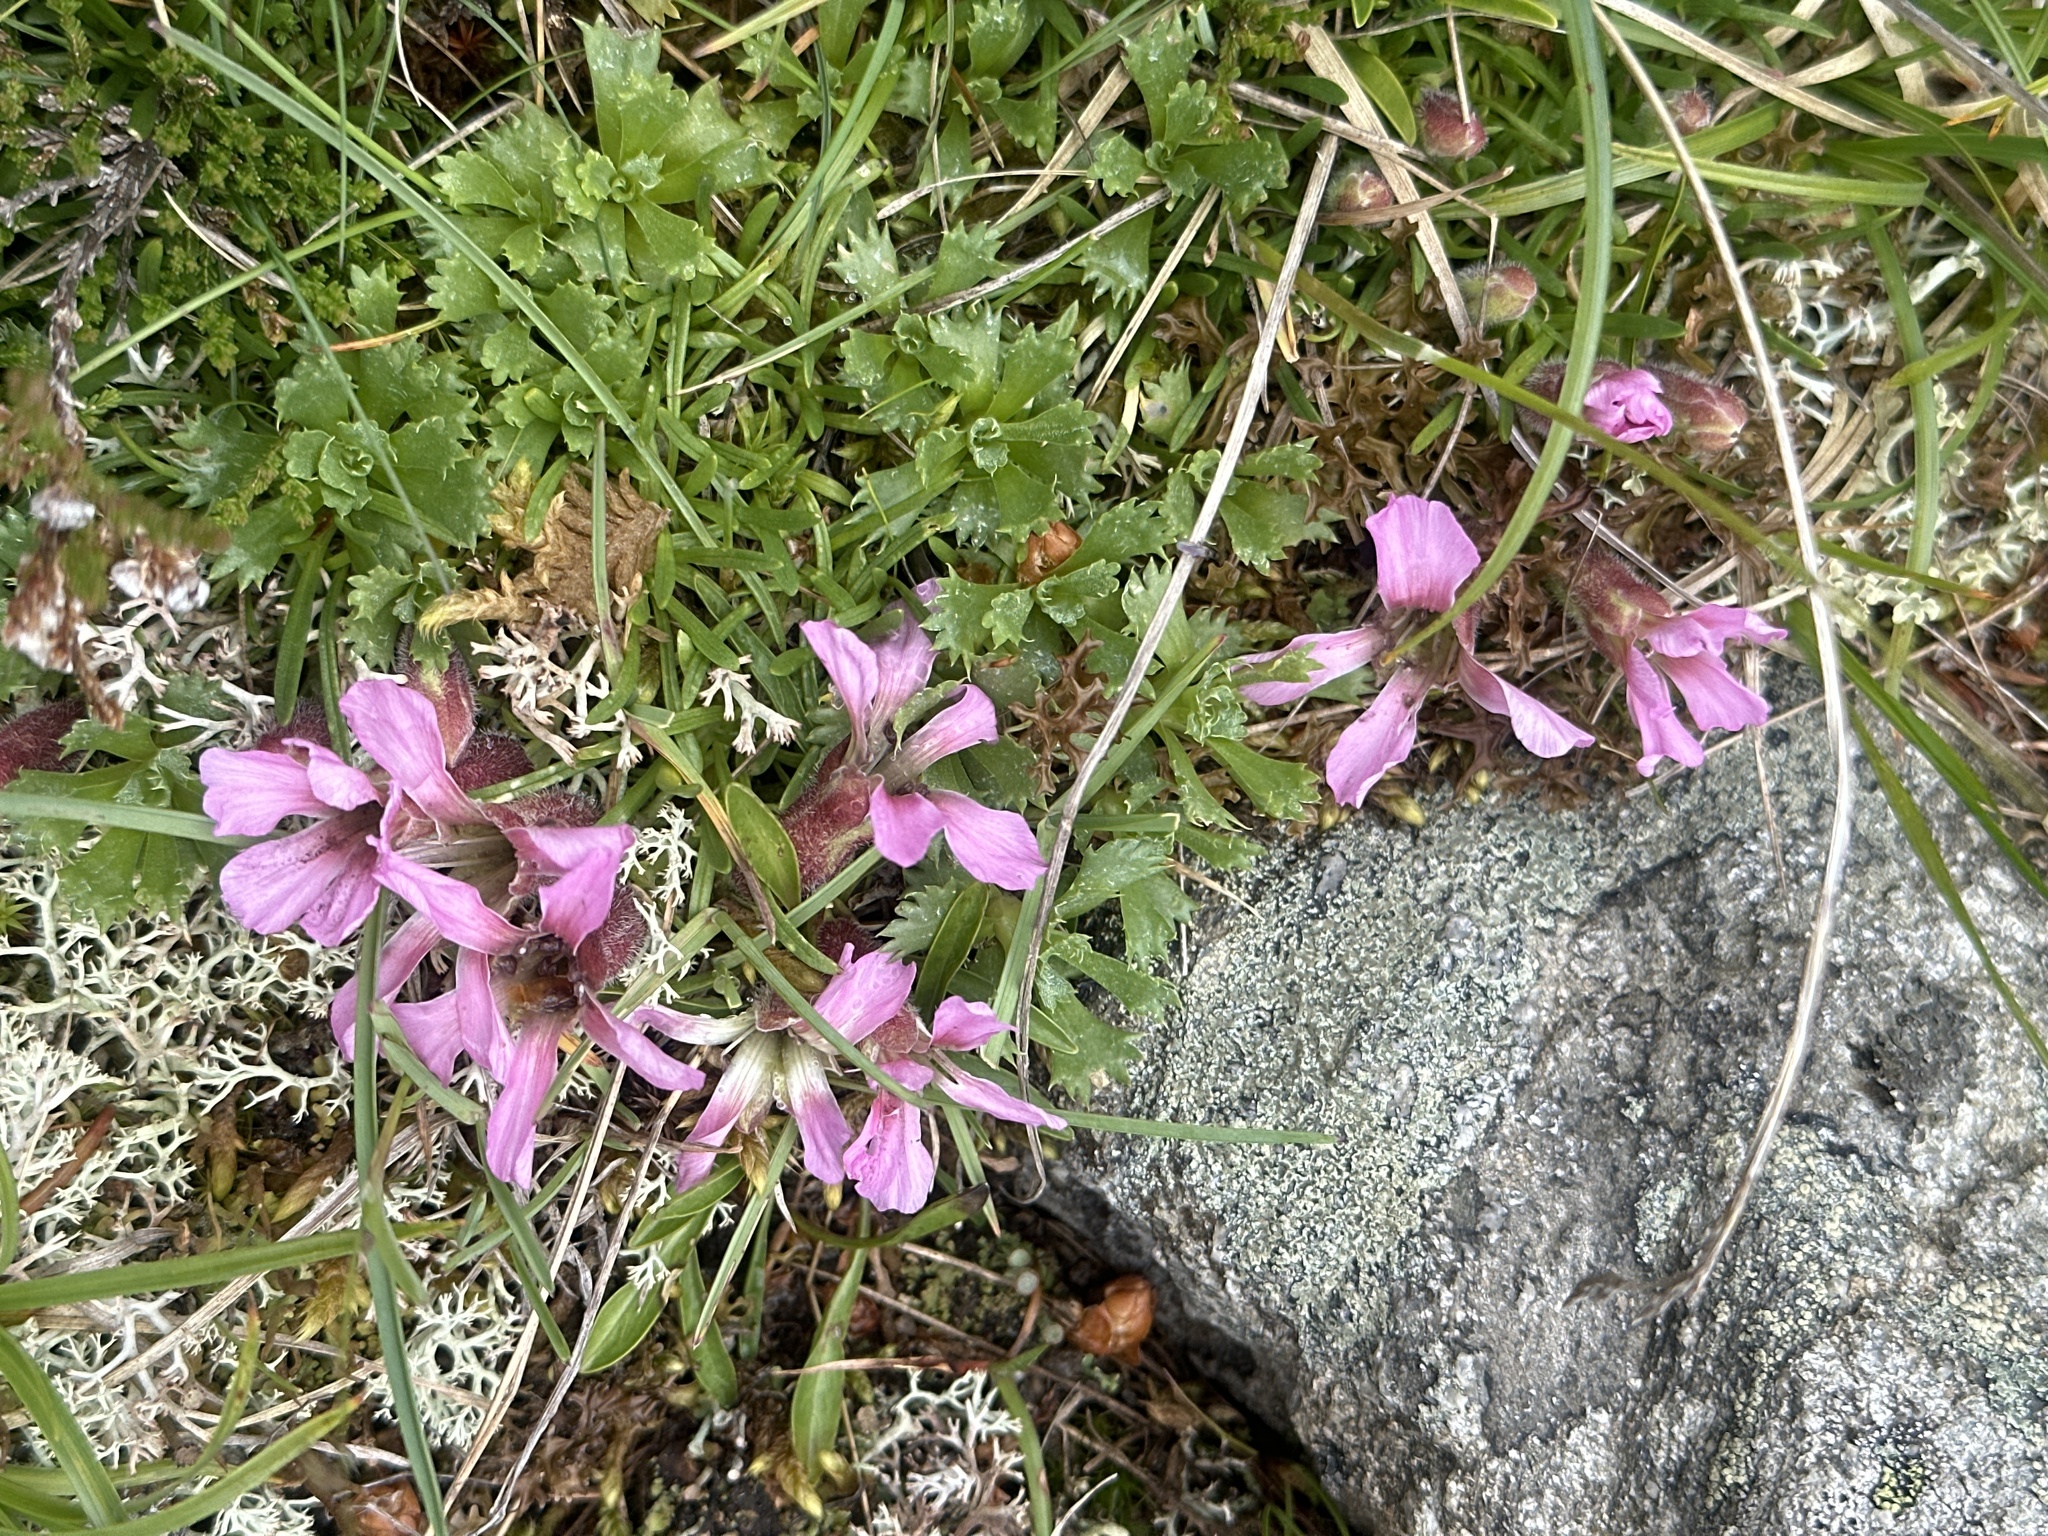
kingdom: Plantae
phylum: Tracheophyta
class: Magnoliopsida
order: Caryophyllales
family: Caryophyllaceae
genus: Saponaria
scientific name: Saponaria pumila
